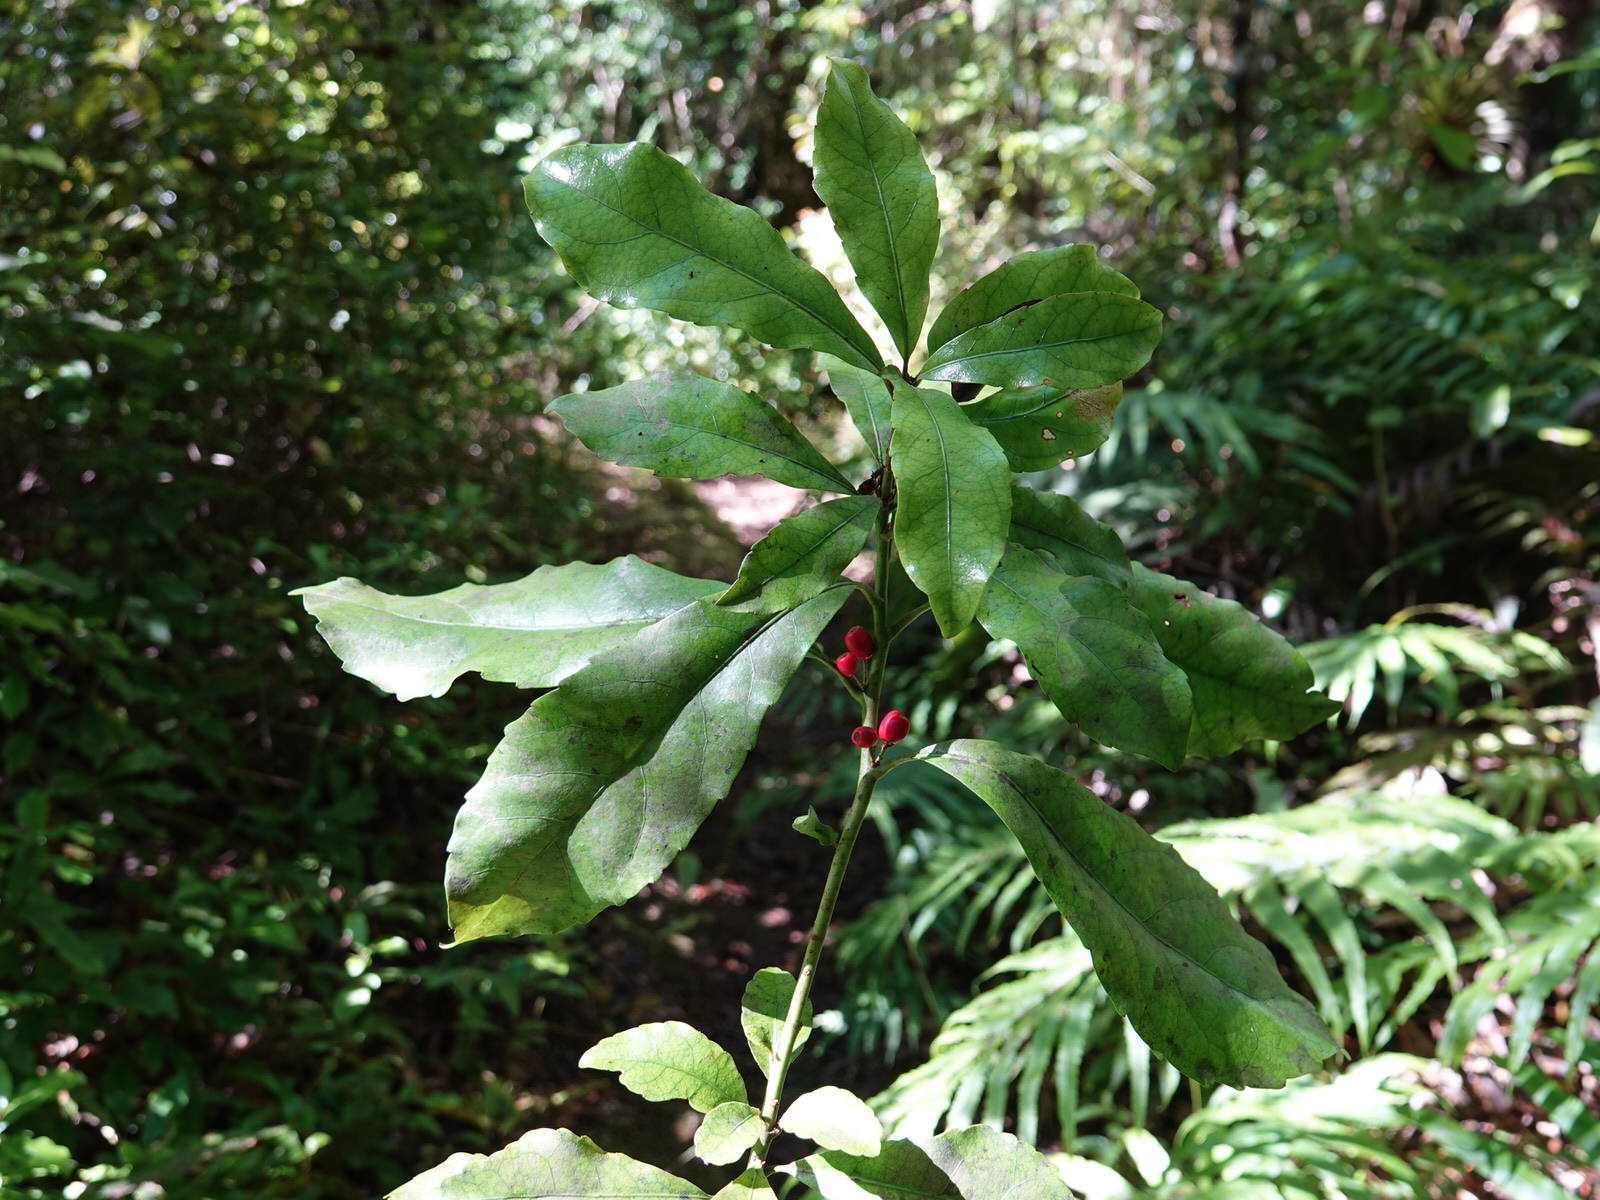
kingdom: Plantae
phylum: Tracheophyta
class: Magnoliopsida
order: Asterales
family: Alseuosmiaceae
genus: Alseuosmia
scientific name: Alseuosmia macrophylla
